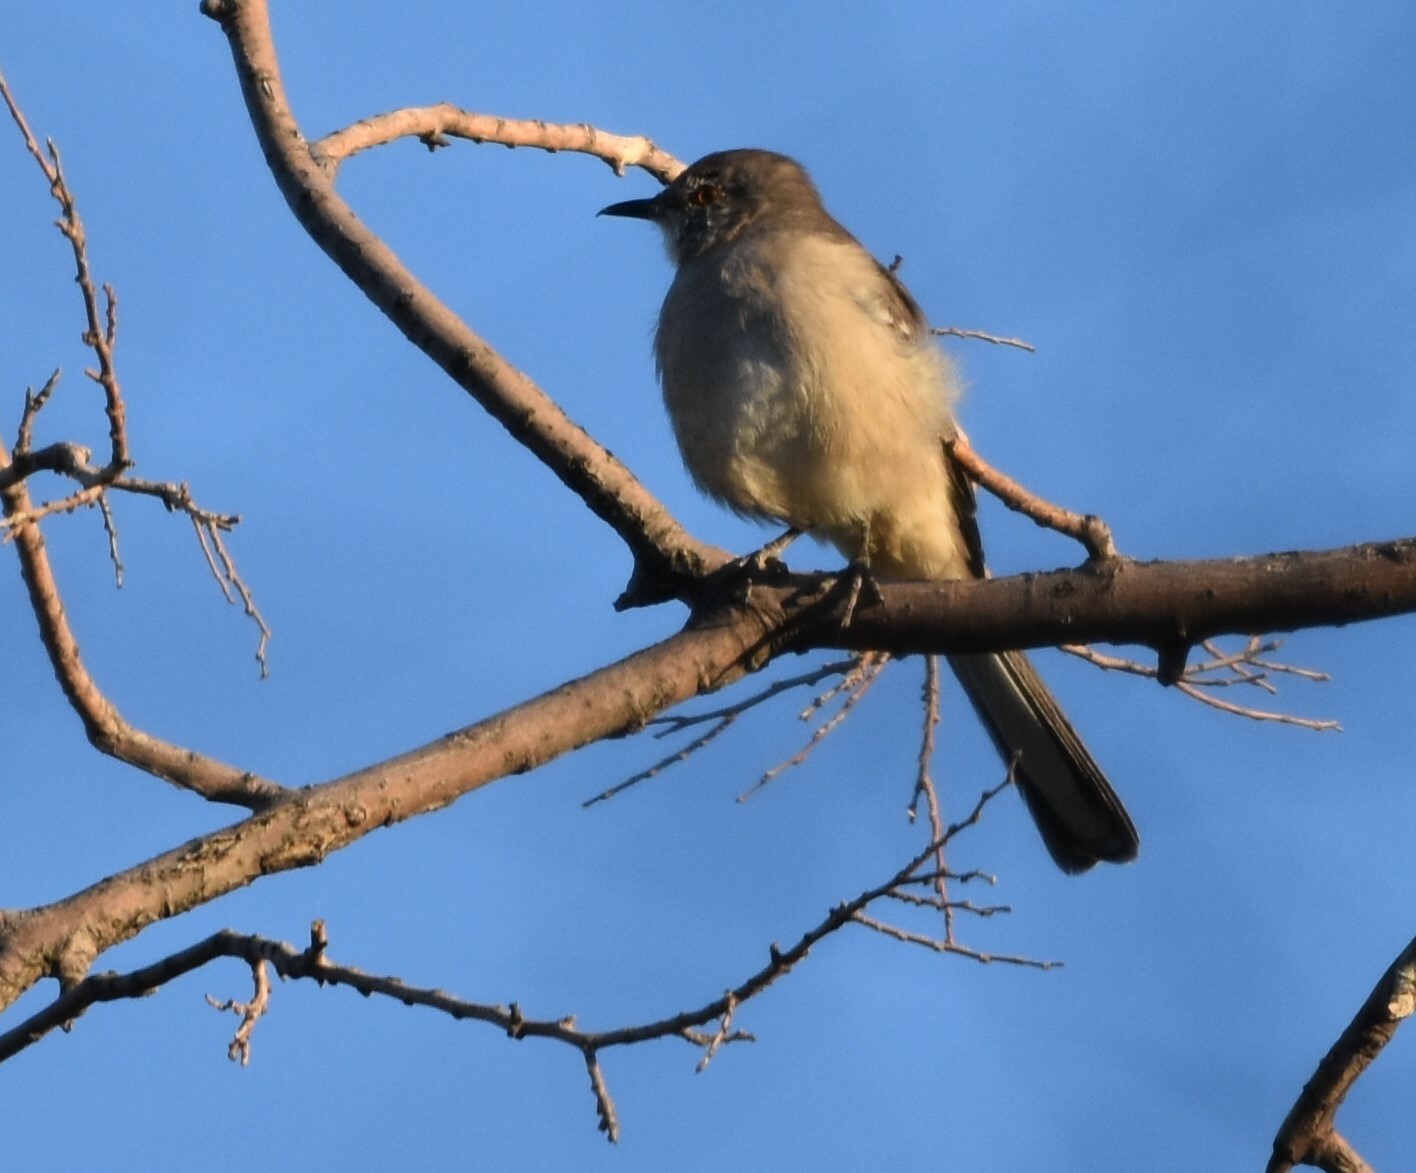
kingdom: Animalia
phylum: Chordata
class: Aves
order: Passeriformes
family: Mimidae
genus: Mimus
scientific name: Mimus polyglottos
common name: Northern mockingbird
